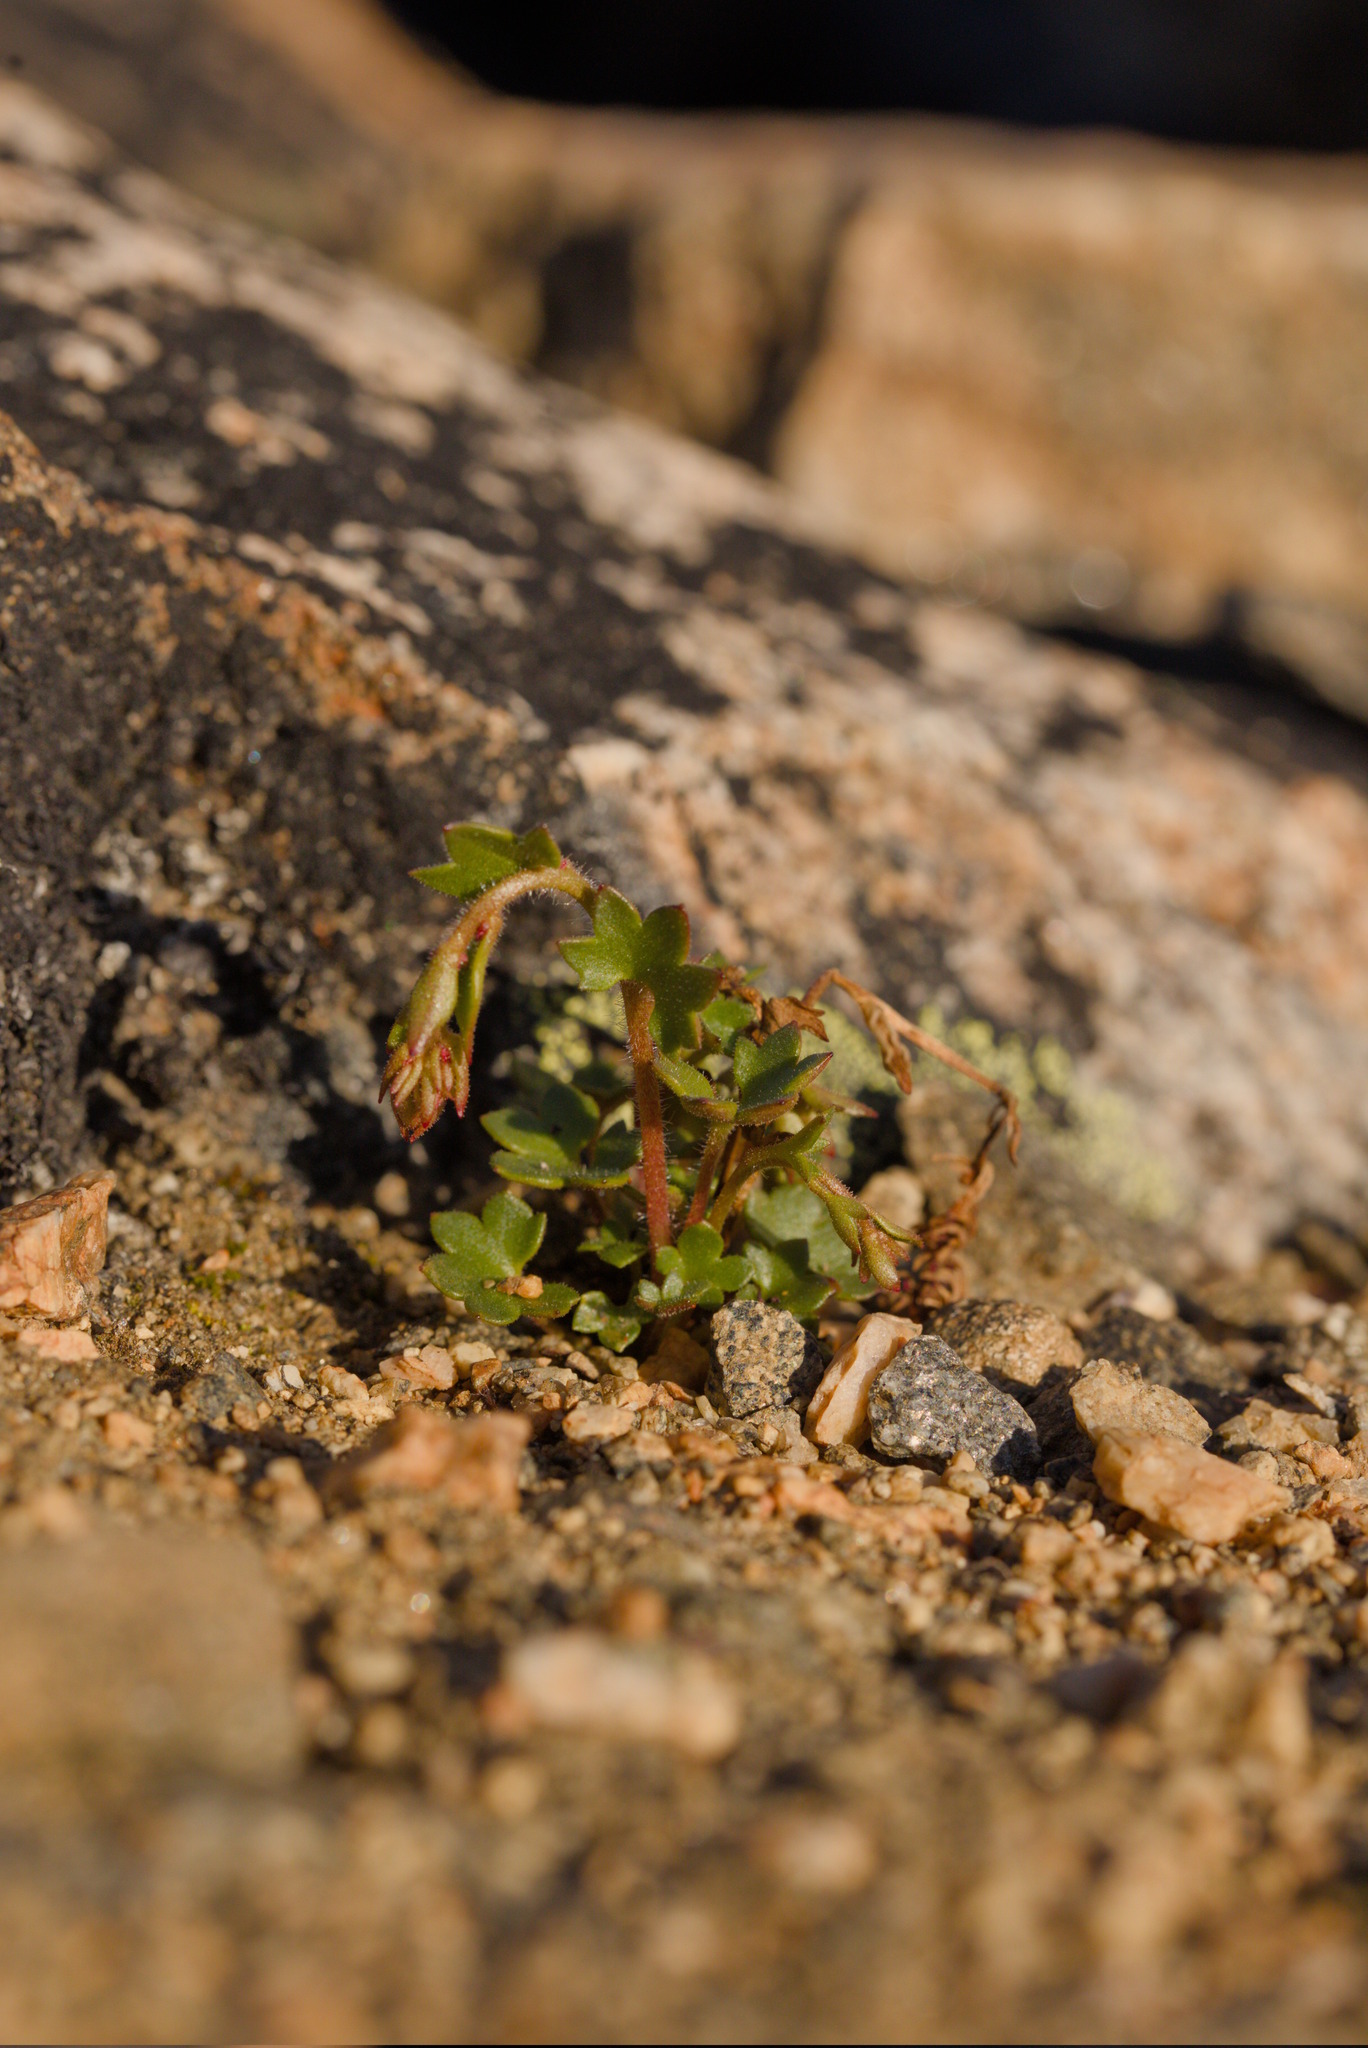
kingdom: Plantae
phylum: Tracheophyta
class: Magnoliopsida
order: Saxifragales
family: Saxifragaceae
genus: Saxifraga
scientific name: Saxifraga cernua
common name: Drooping saxifrage
